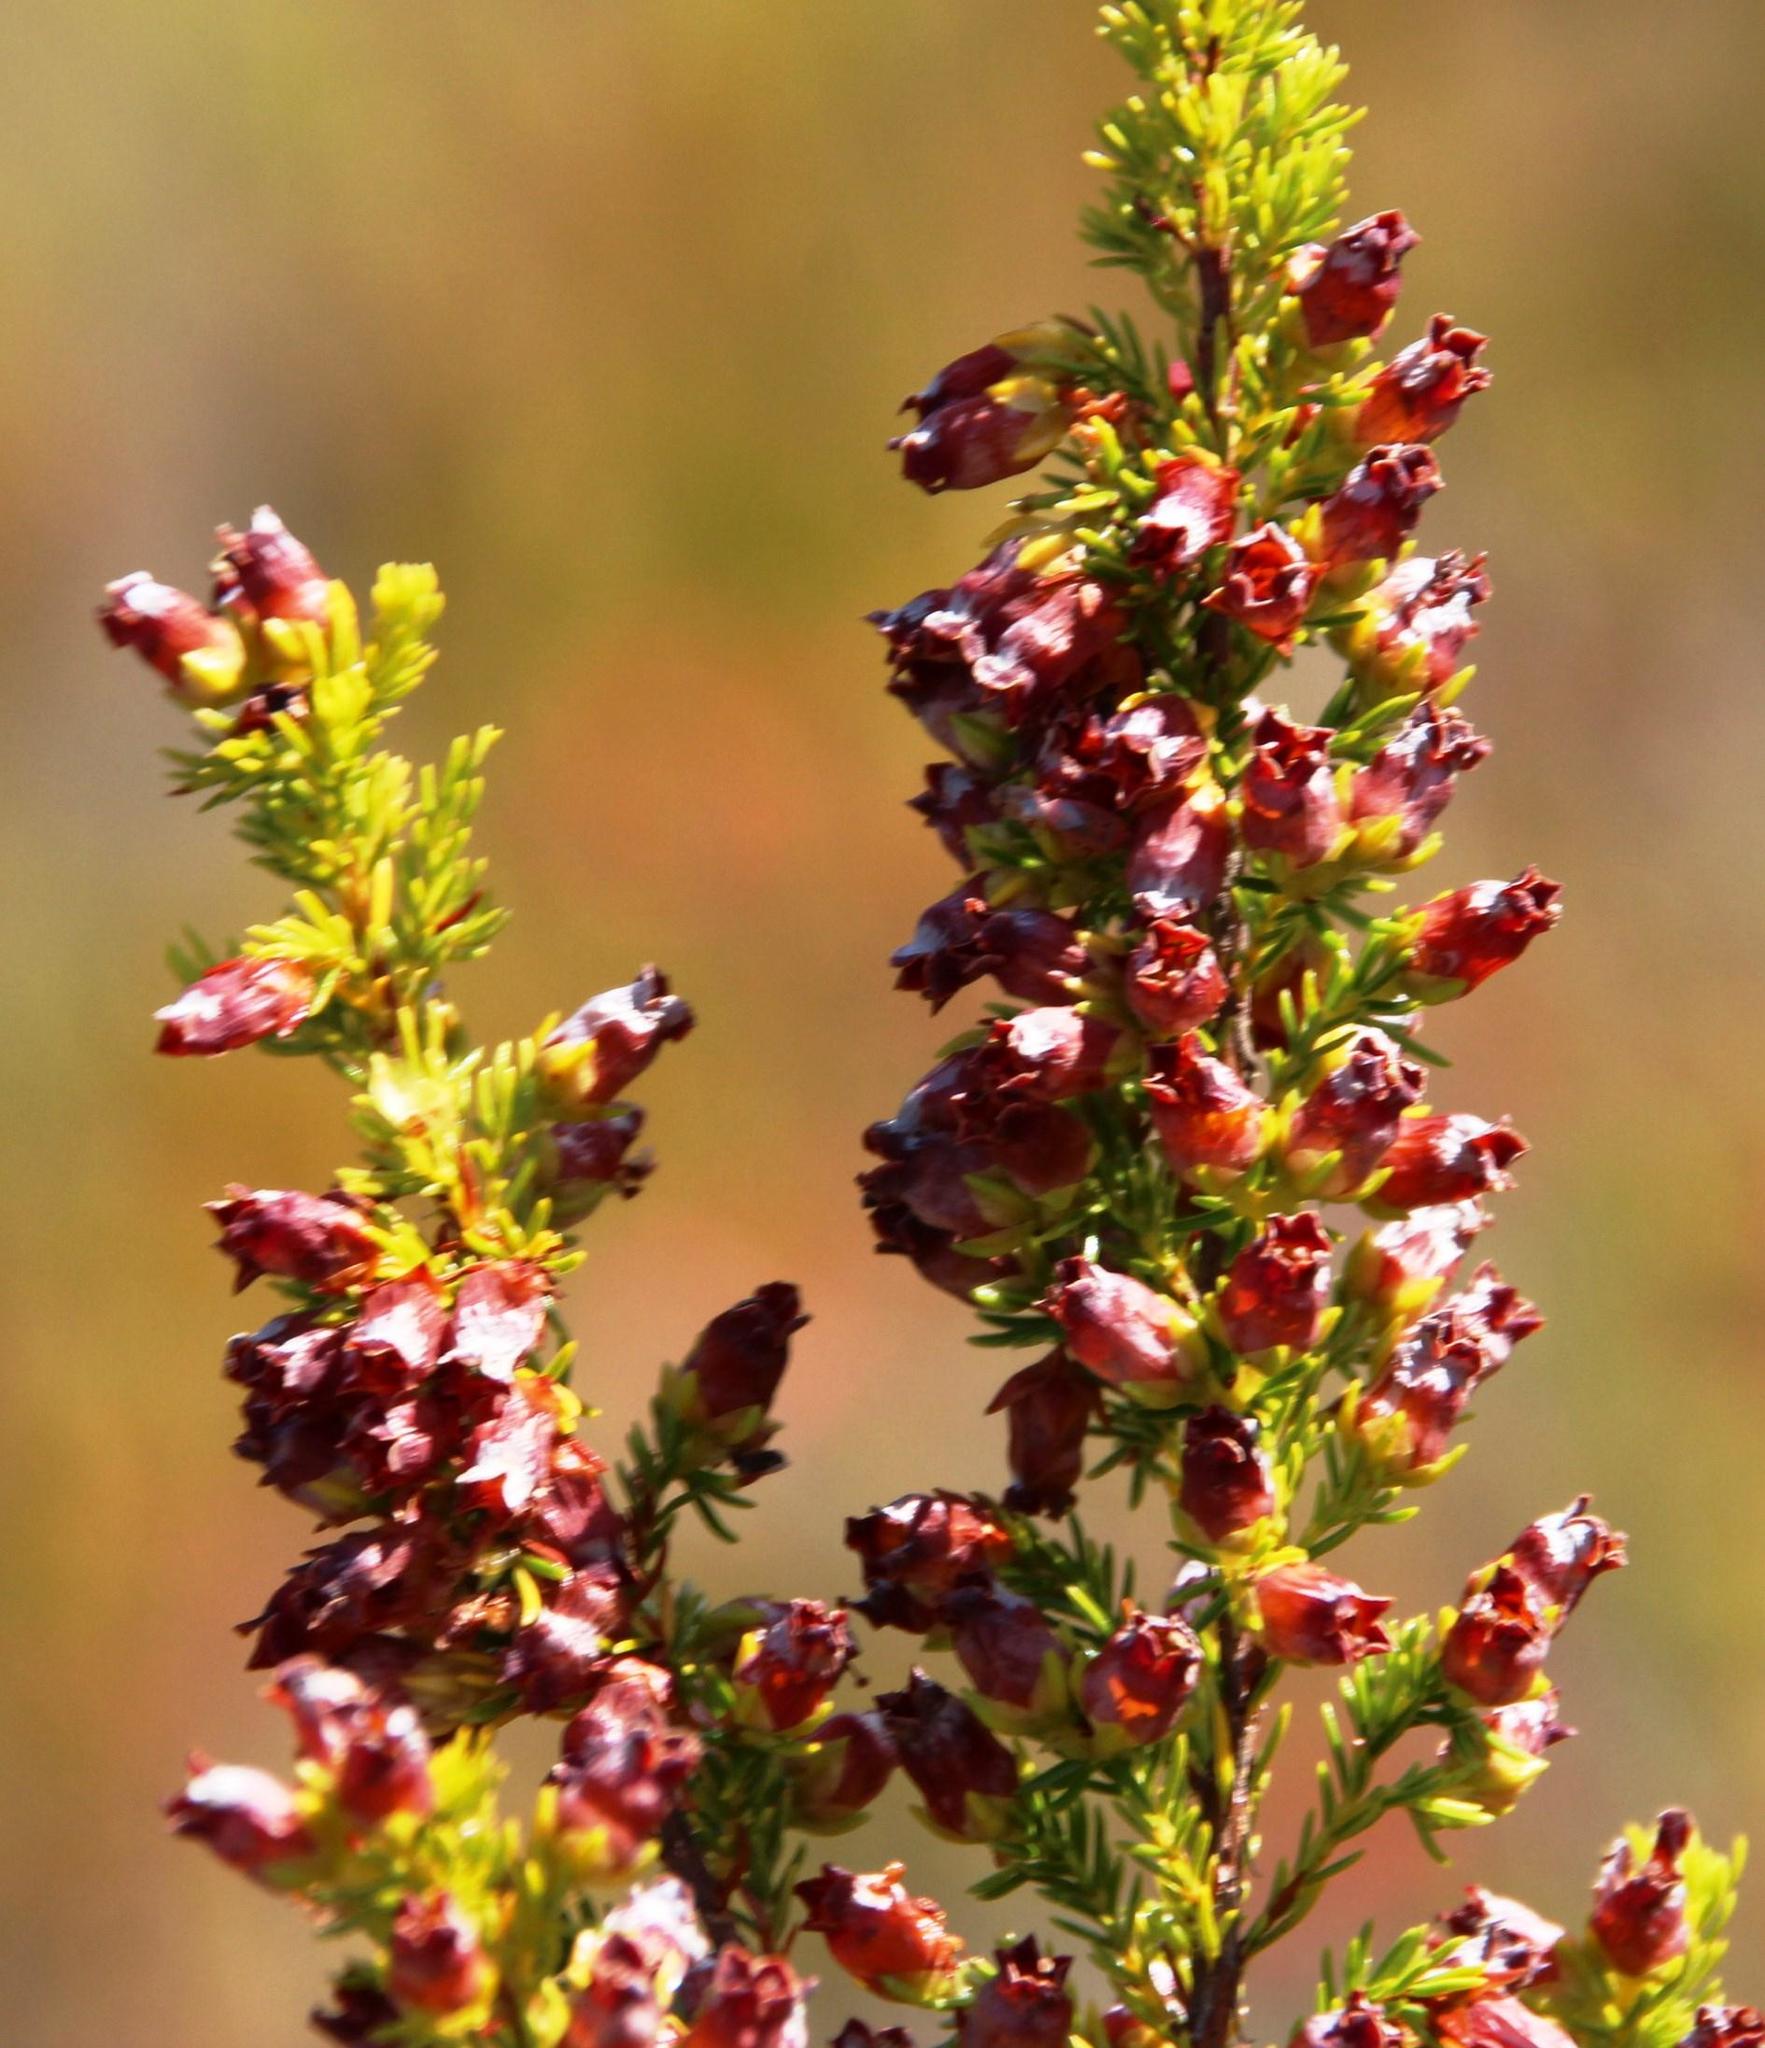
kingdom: Plantae
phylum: Tracheophyta
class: Magnoliopsida
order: Ericales
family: Ericaceae
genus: Erica
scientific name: Erica blandfordia
